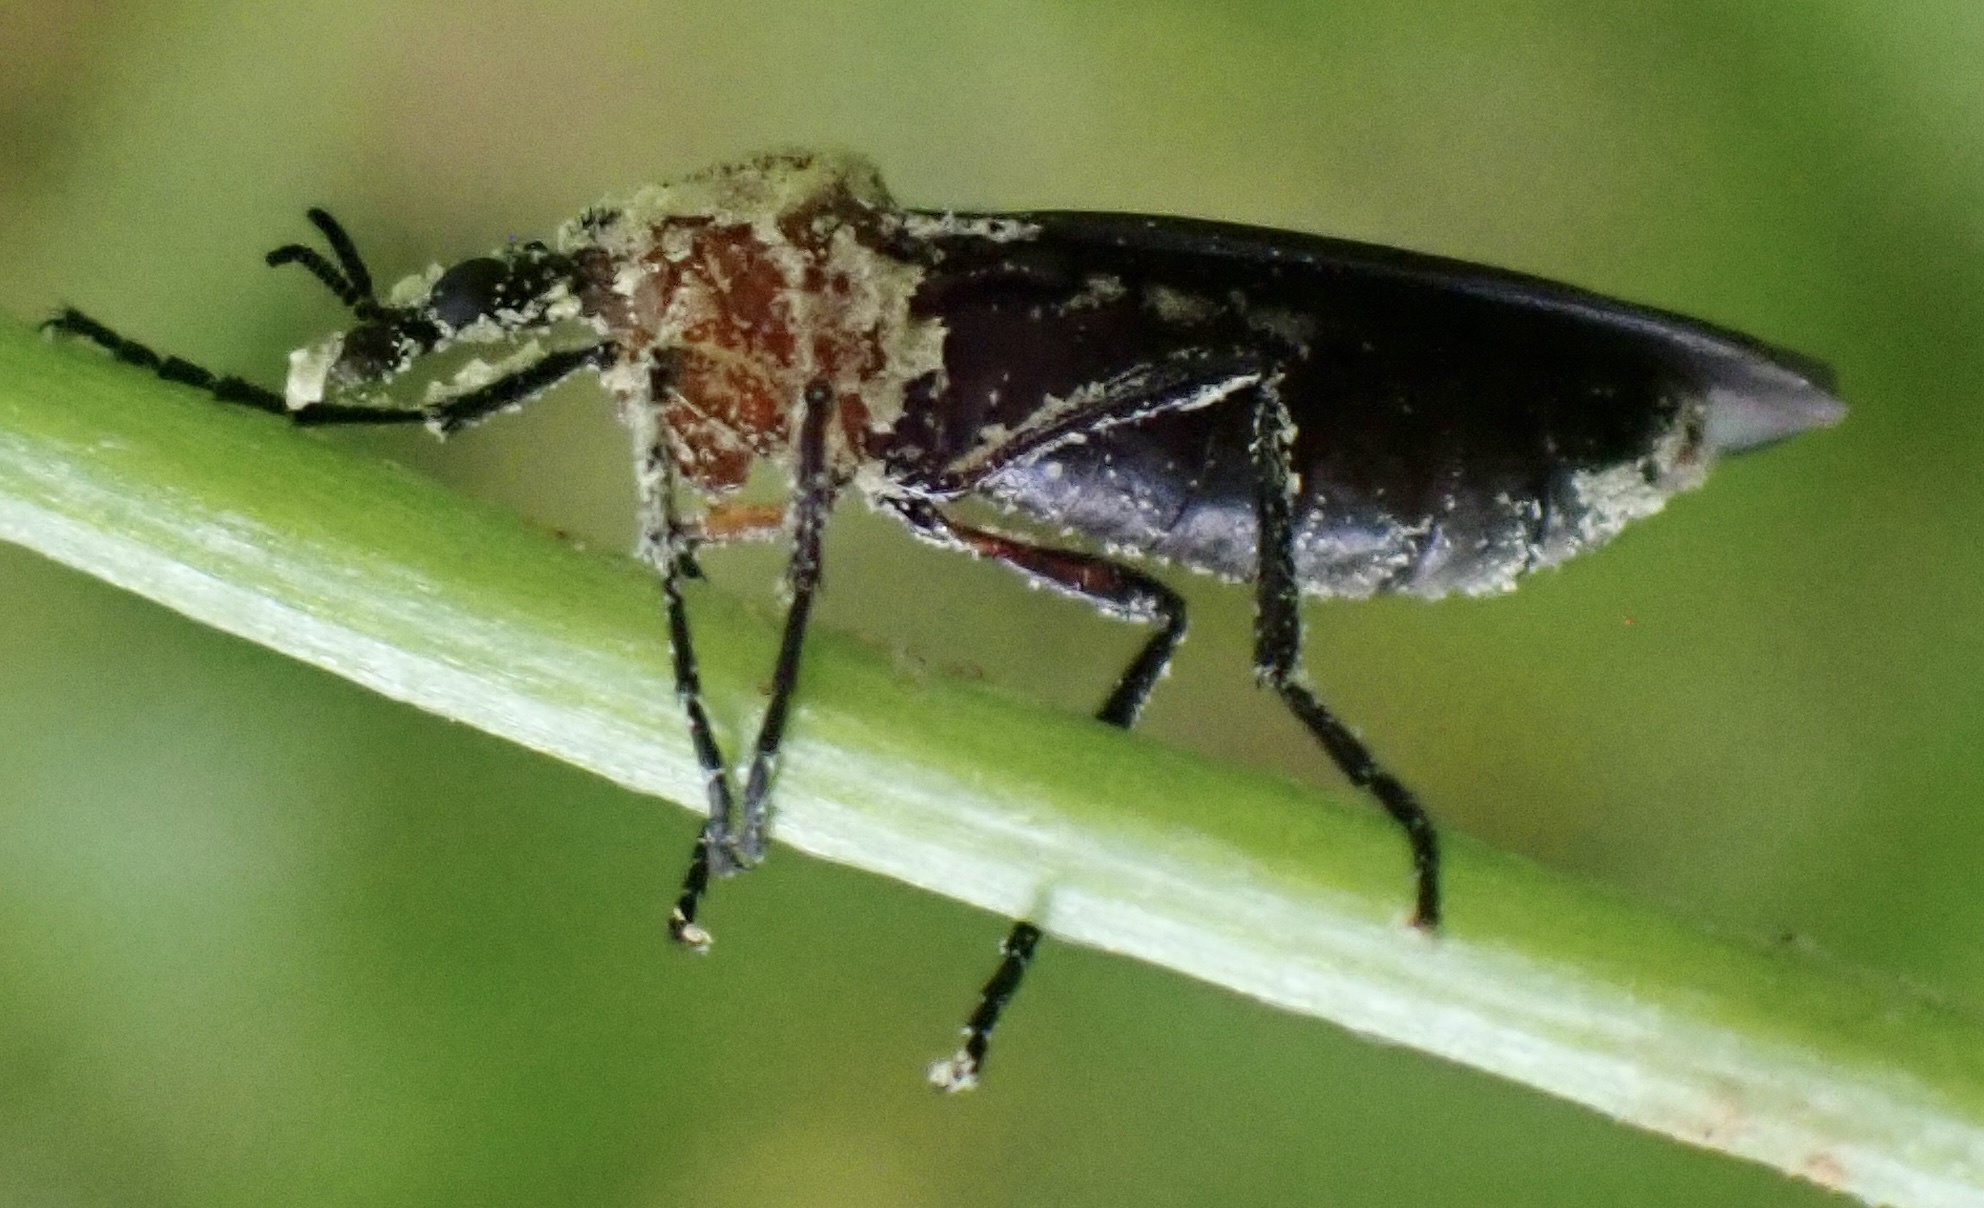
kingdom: Animalia
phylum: Arthropoda
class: Insecta
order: Diptera
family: Bibionidae
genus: Dilophus
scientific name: Dilophus spinipes
